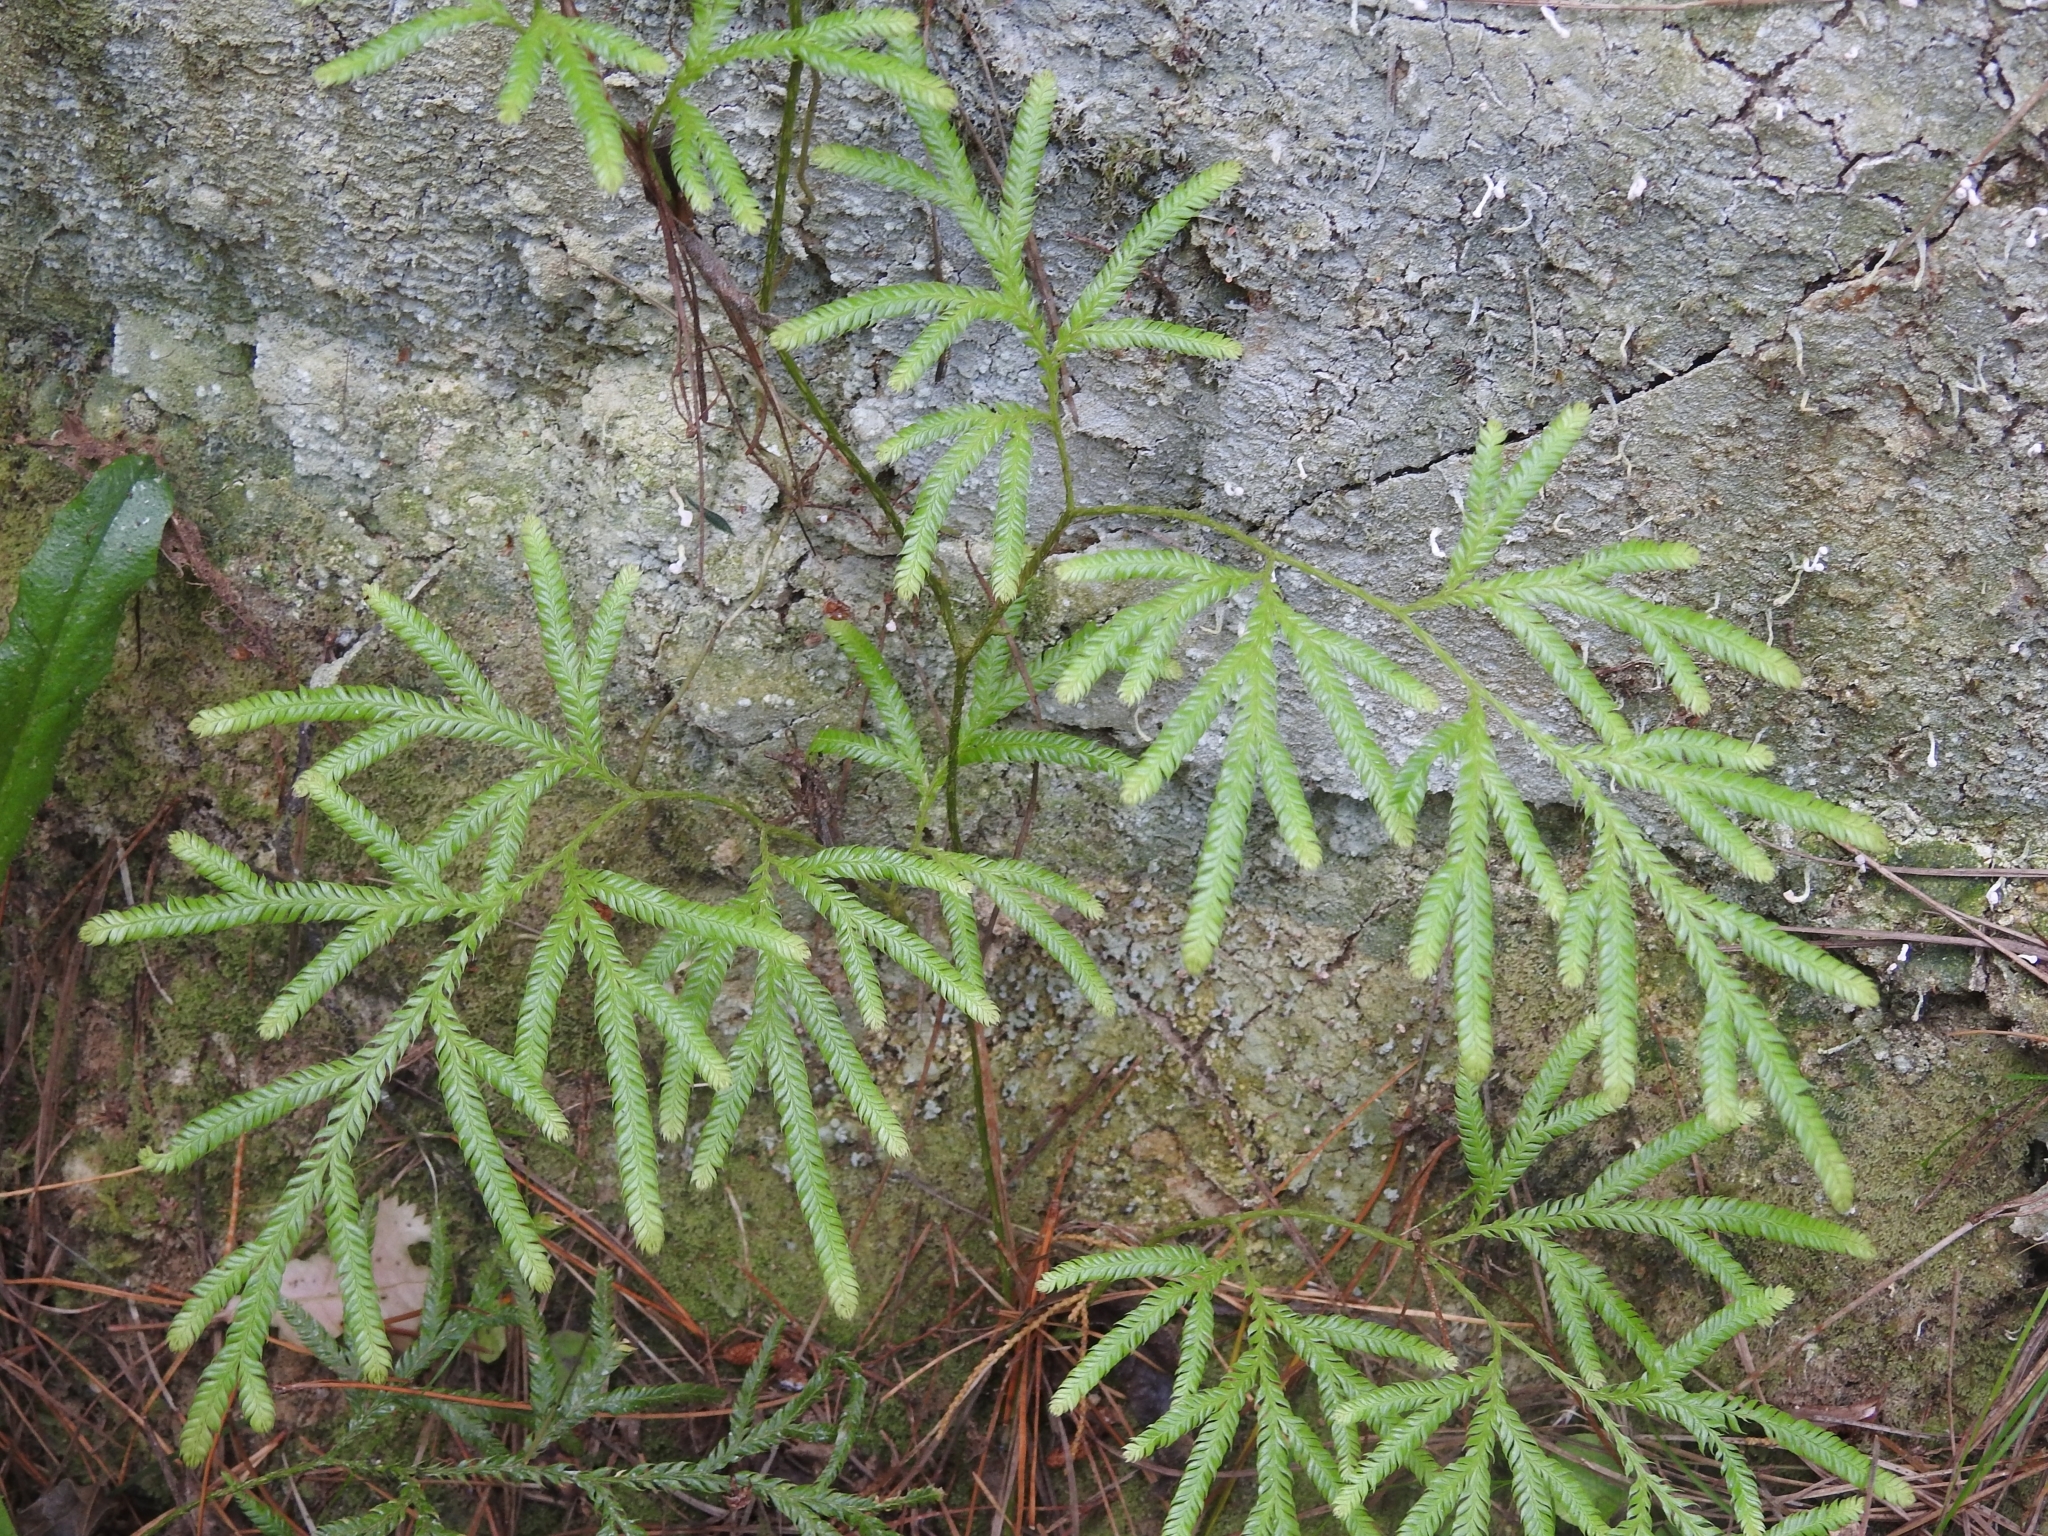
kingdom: Plantae
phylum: Tracheophyta
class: Lycopodiopsida
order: Lycopodiales
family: Lycopodiaceae
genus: Lycopodium
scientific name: Lycopodium volubile
